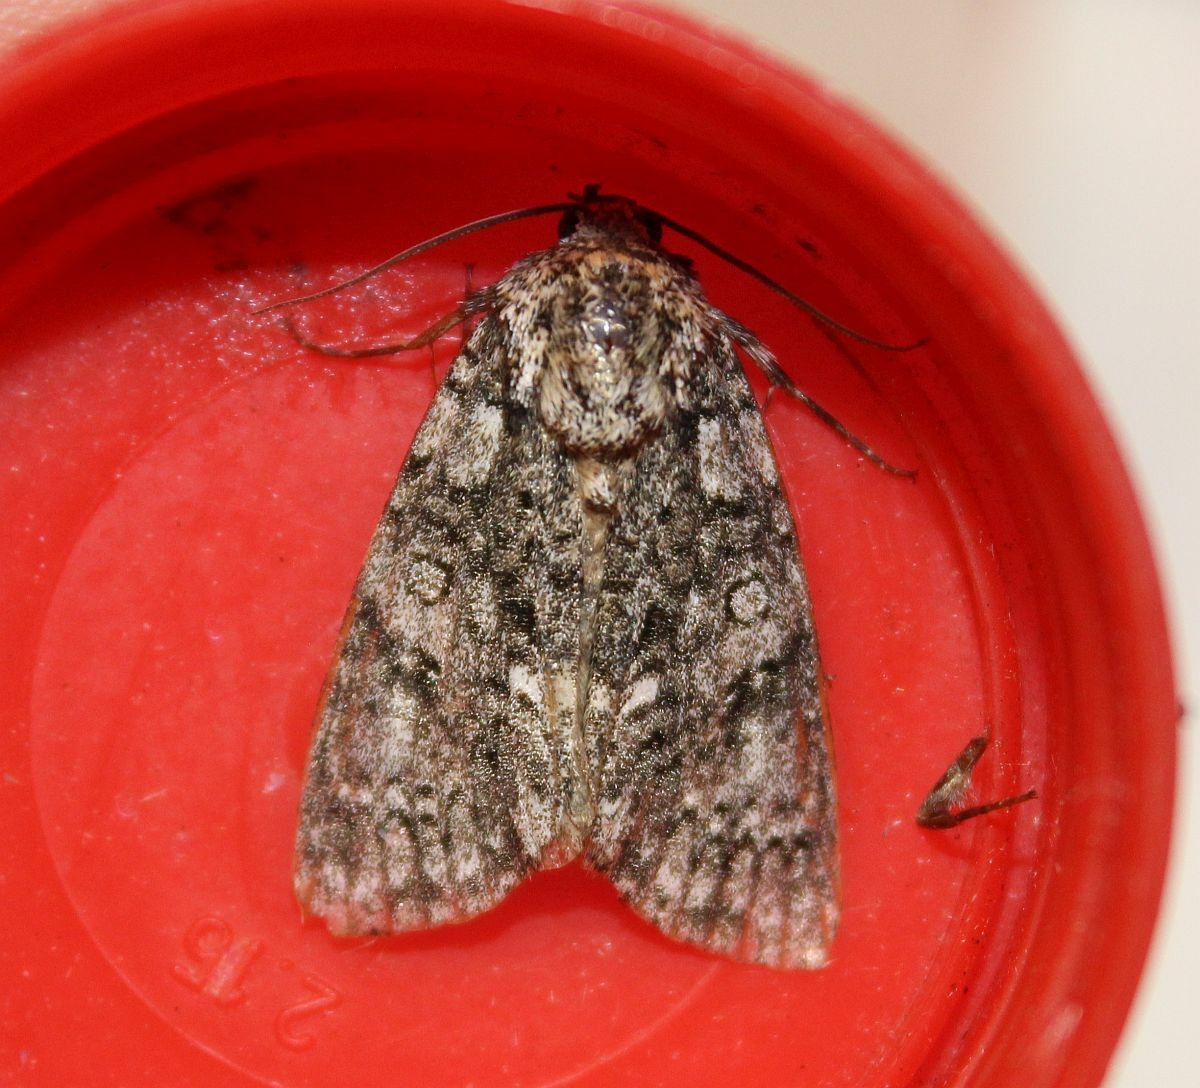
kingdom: Animalia
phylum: Arthropoda
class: Insecta
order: Lepidoptera
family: Noctuidae
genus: Acronicta
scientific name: Acronicta rumicis
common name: Knot grass
